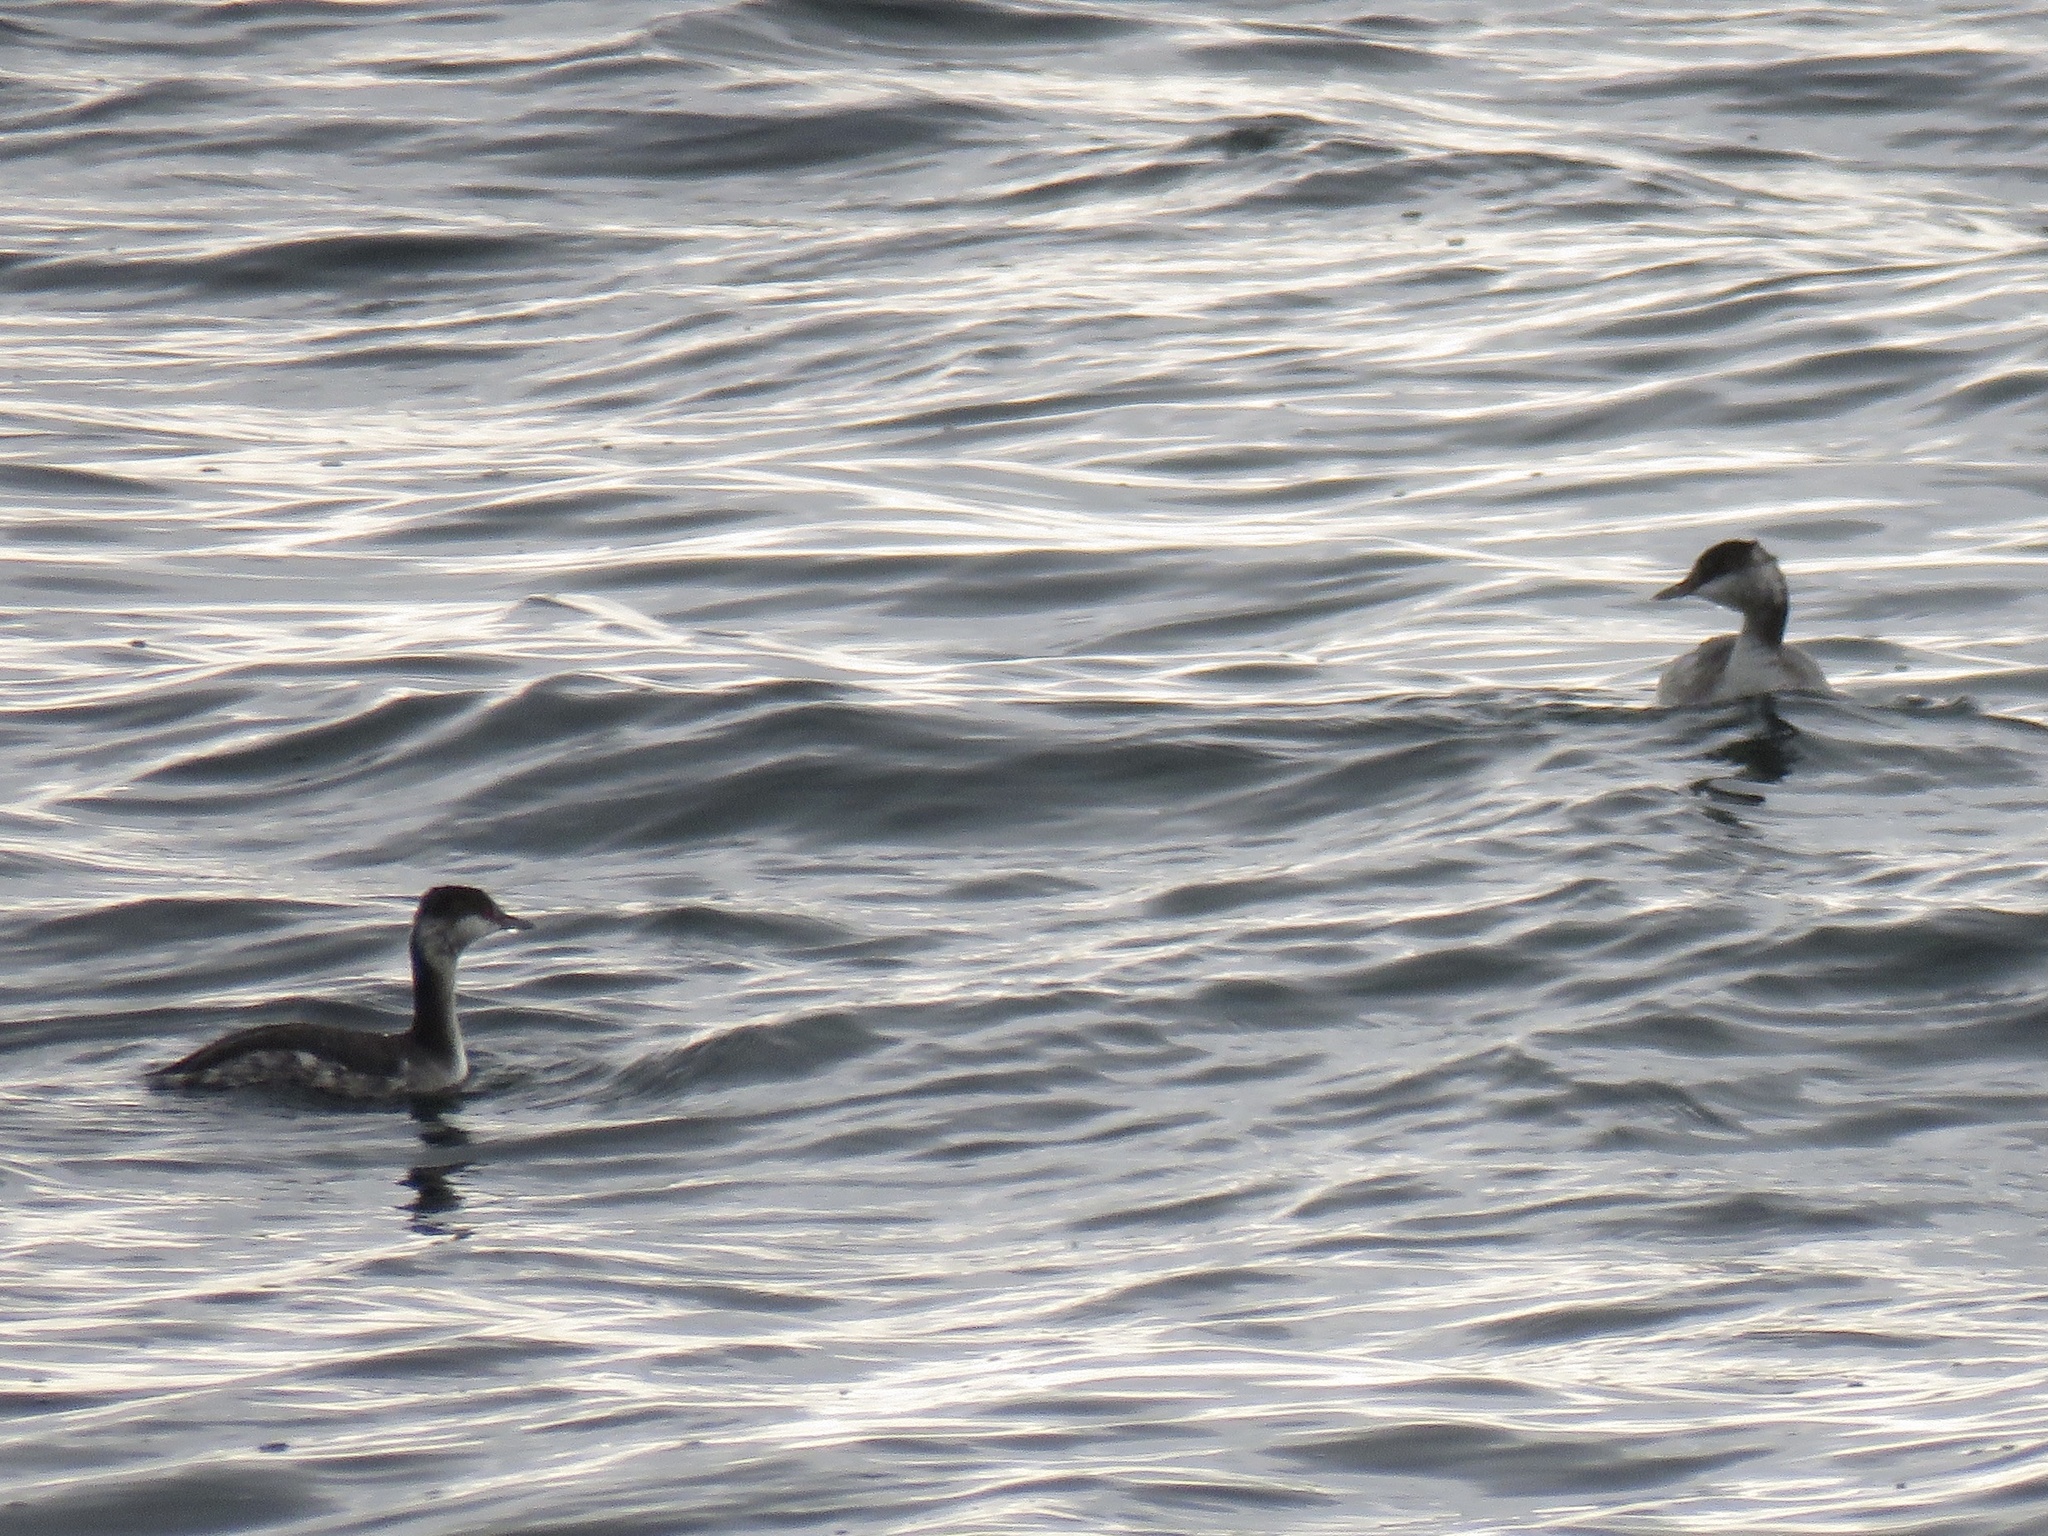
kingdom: Animalia
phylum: Chordata
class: Aves
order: Podicipediformes
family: Podicipedidae
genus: Podiceps
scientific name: Podiceps auritus
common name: Horned grebe
